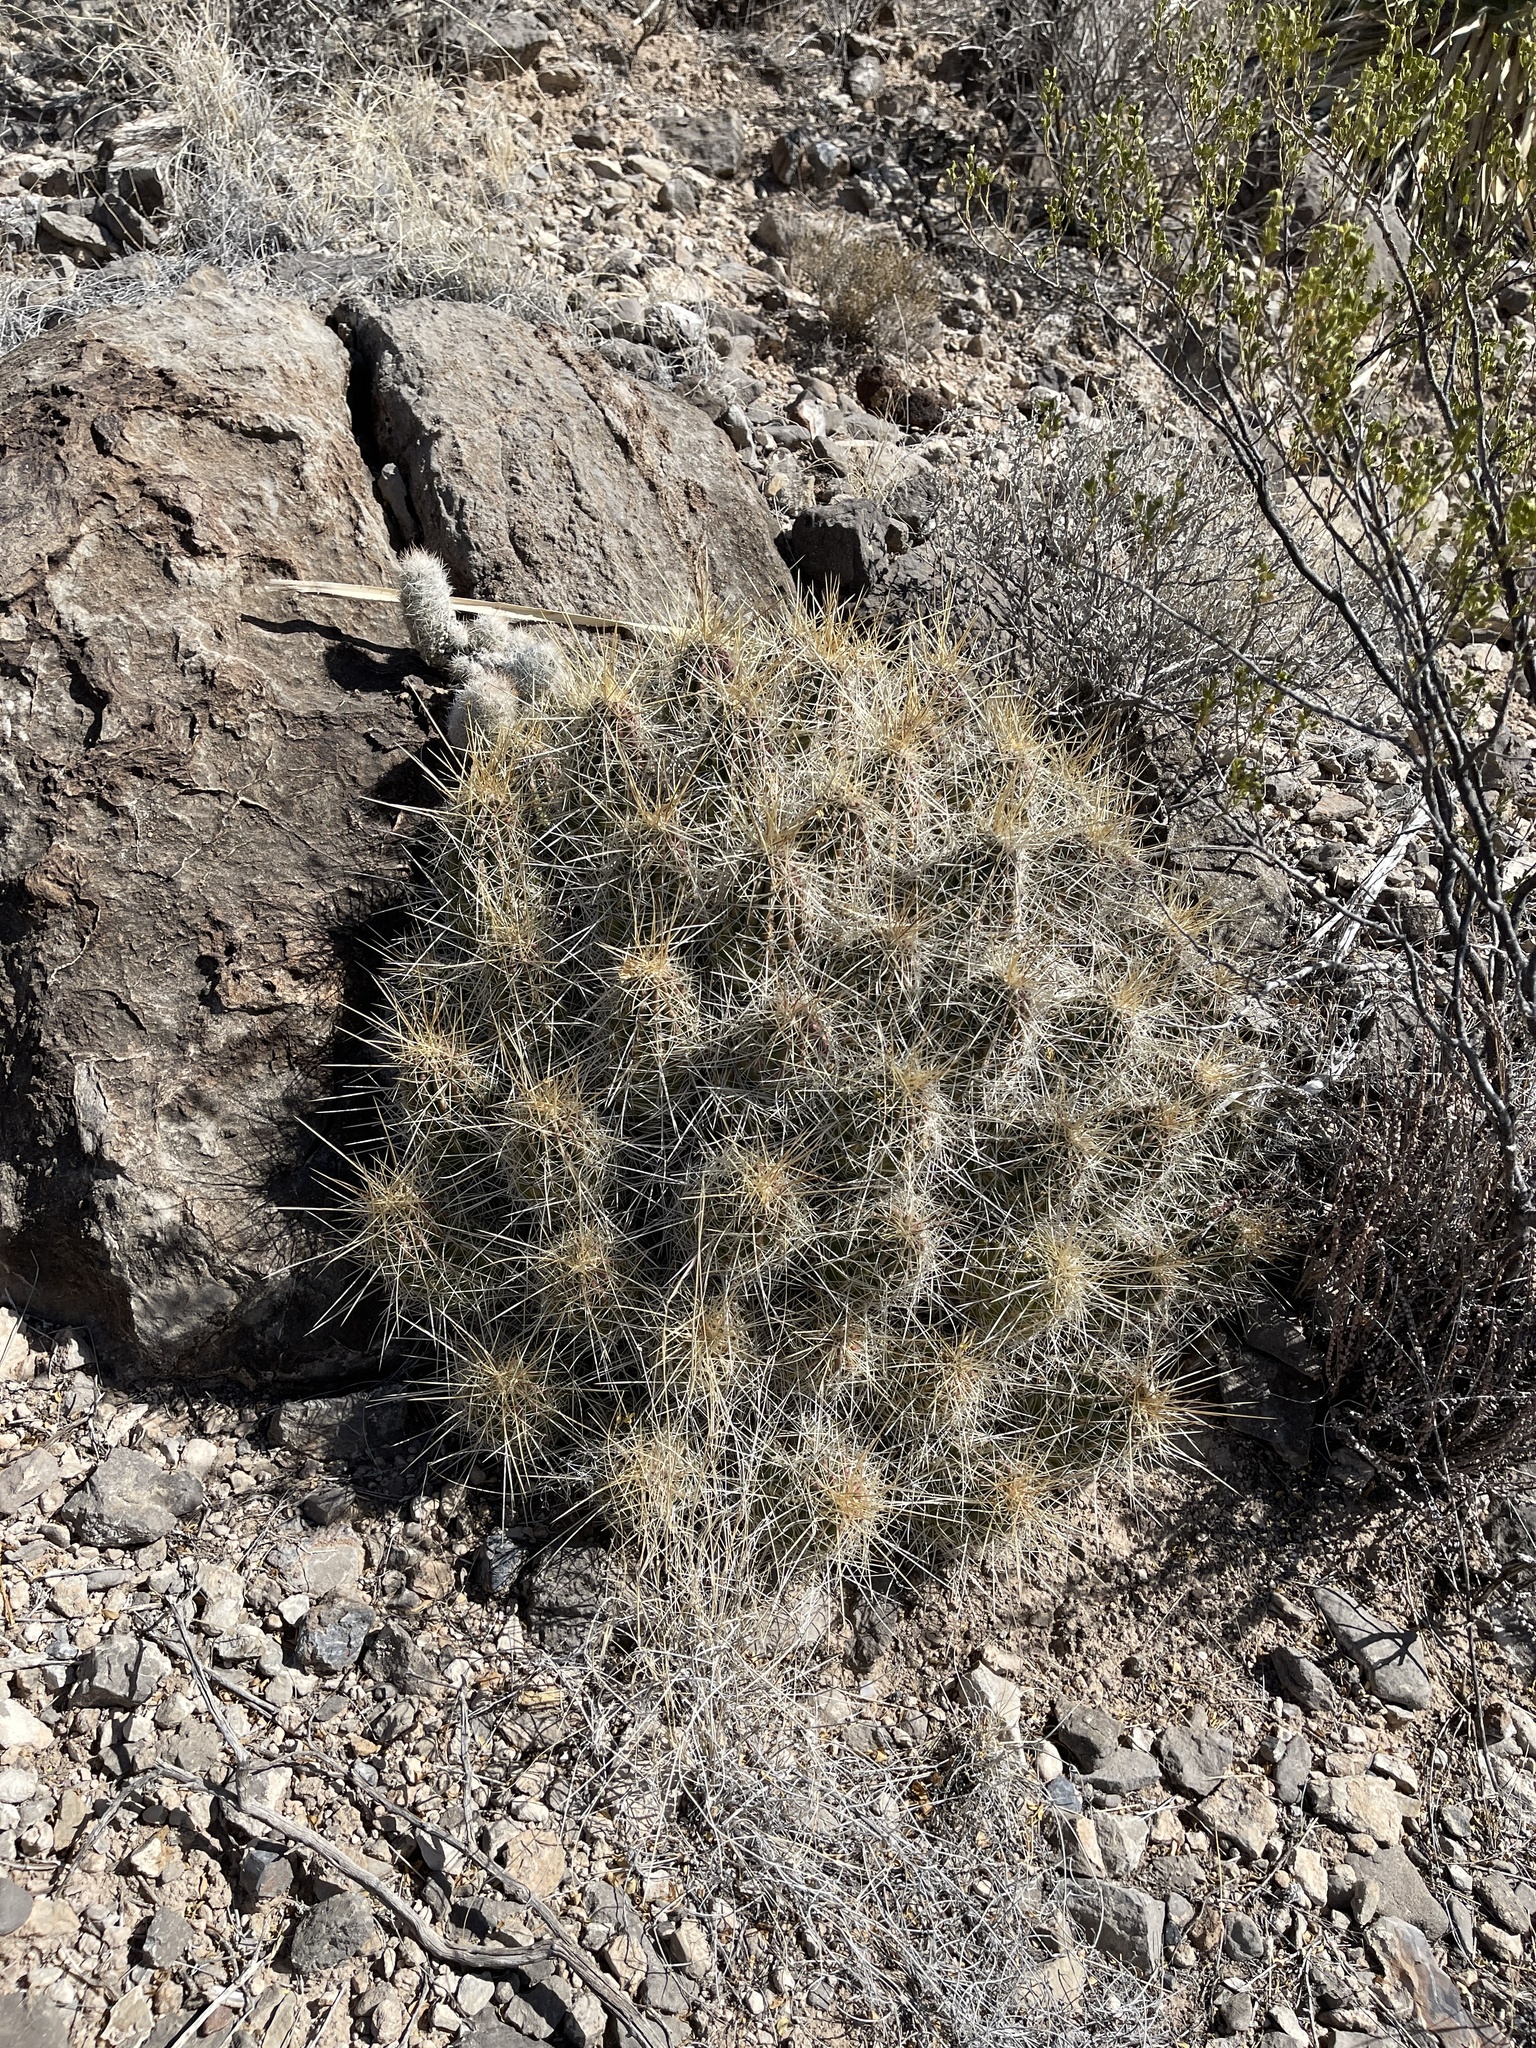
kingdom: Plantae
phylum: Tracheophyta
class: Magnoliopsida
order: Caryophyllales
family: Cactaceae
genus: Echinocereus
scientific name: Echinocereus stramineus
